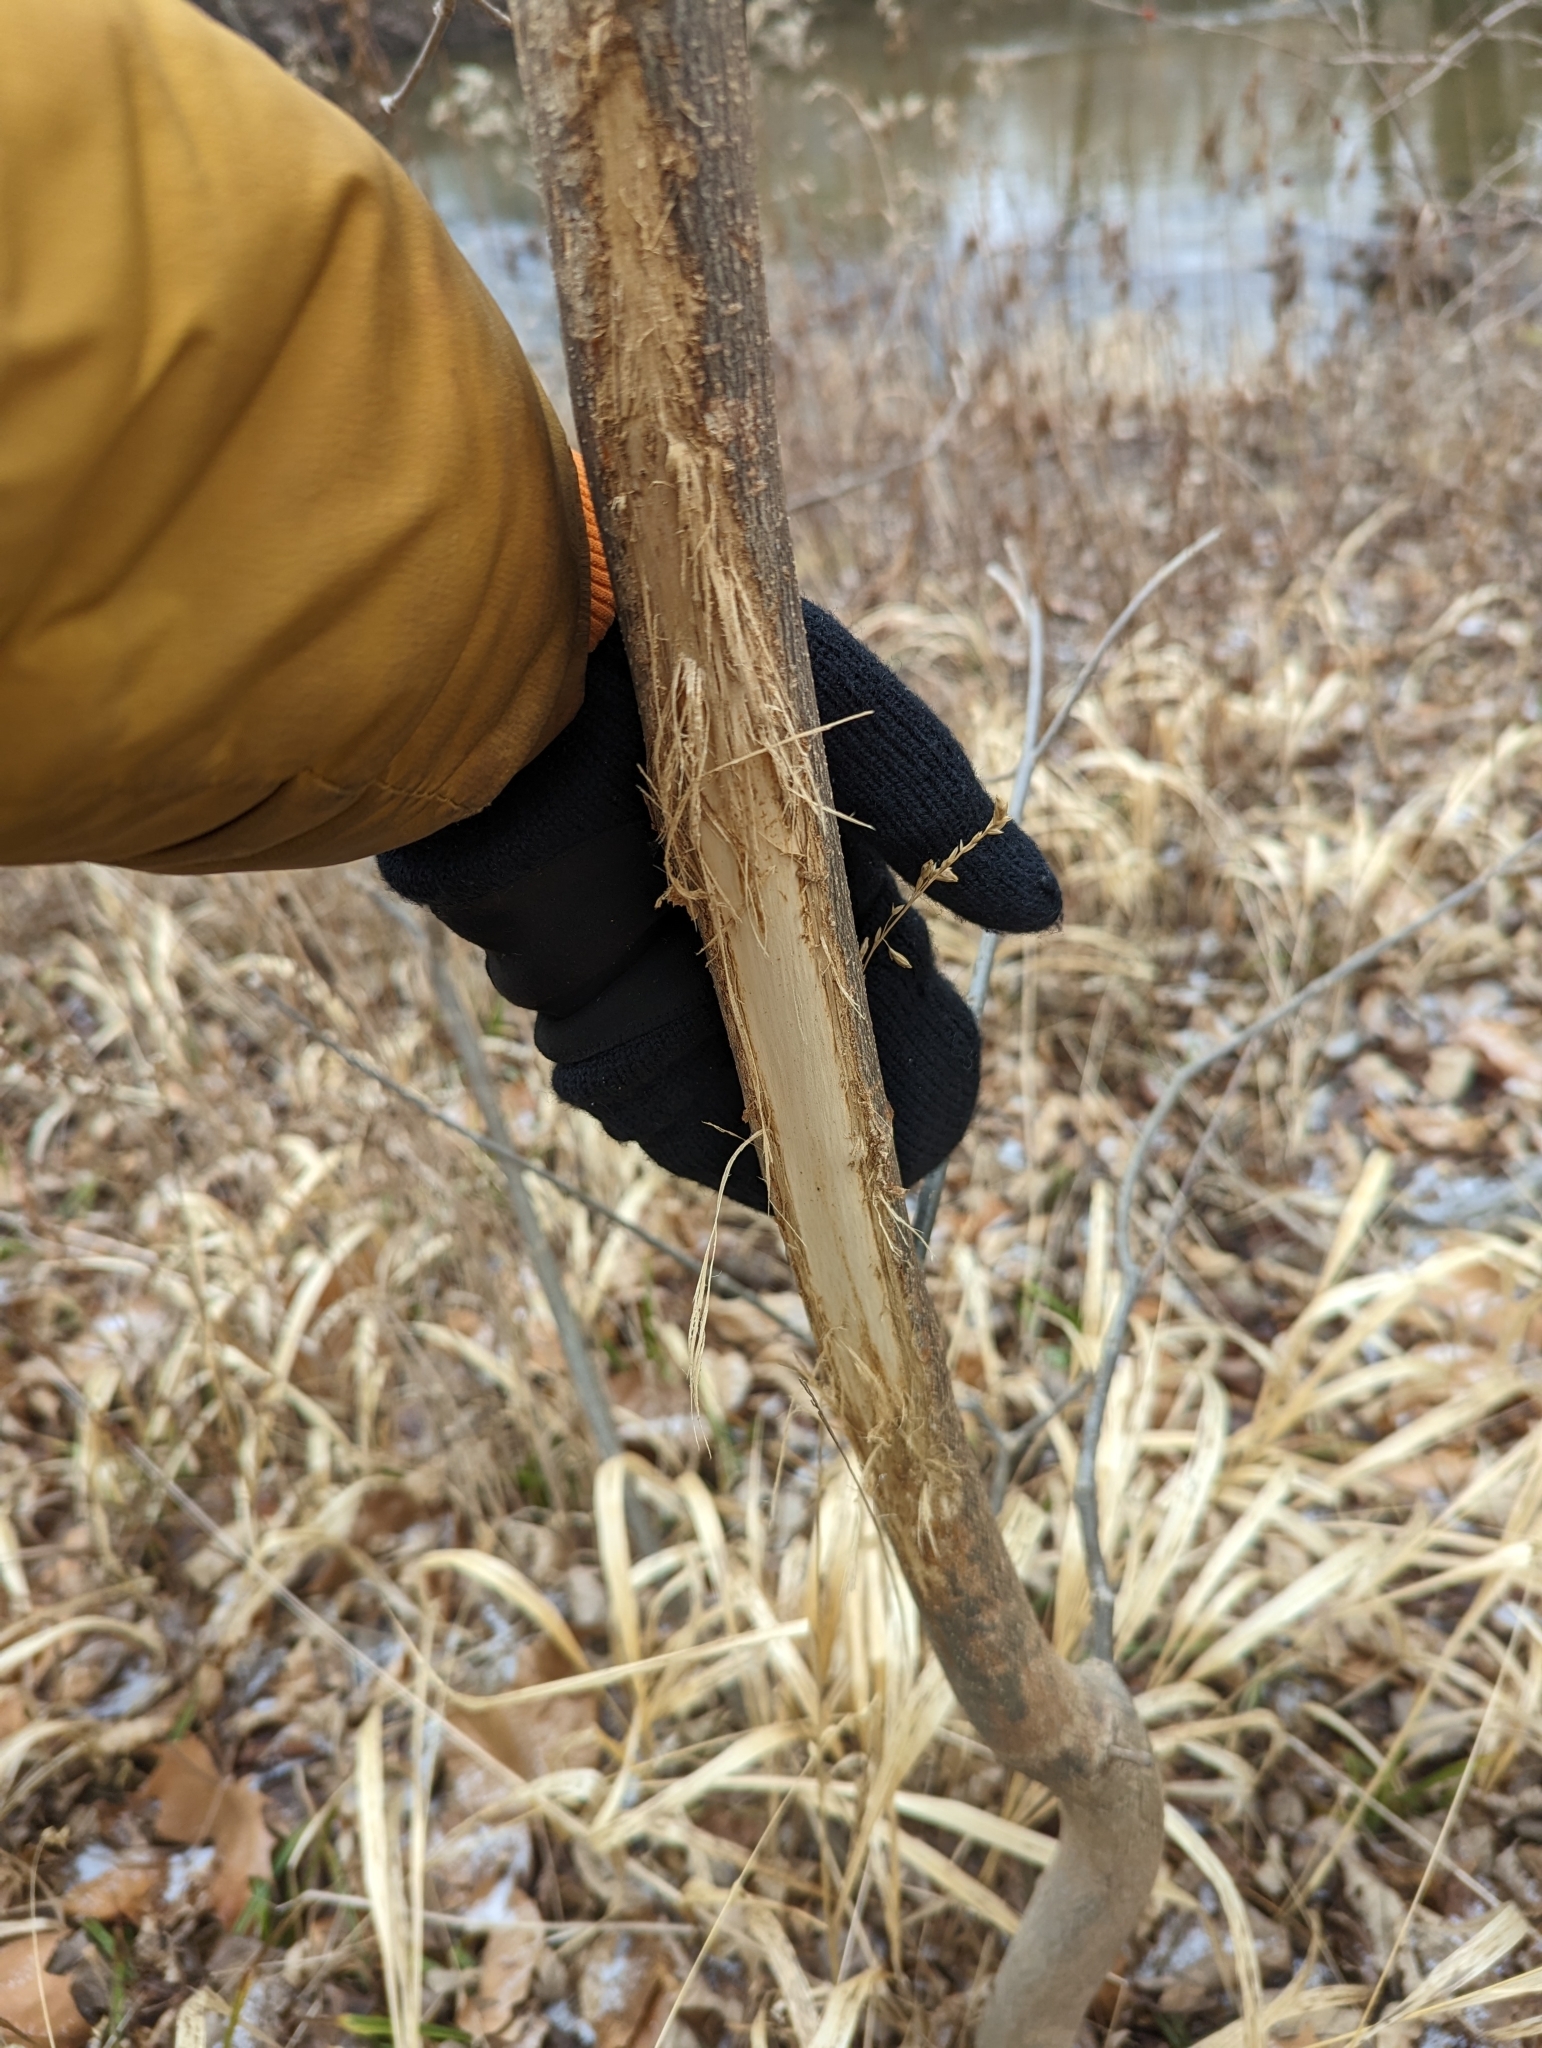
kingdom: Animalia
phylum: Chordata
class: Mammalia
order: Artiodactyla
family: Cervidae
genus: Odocoileus
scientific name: Odocoileus virginianus
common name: White-tailed deer
